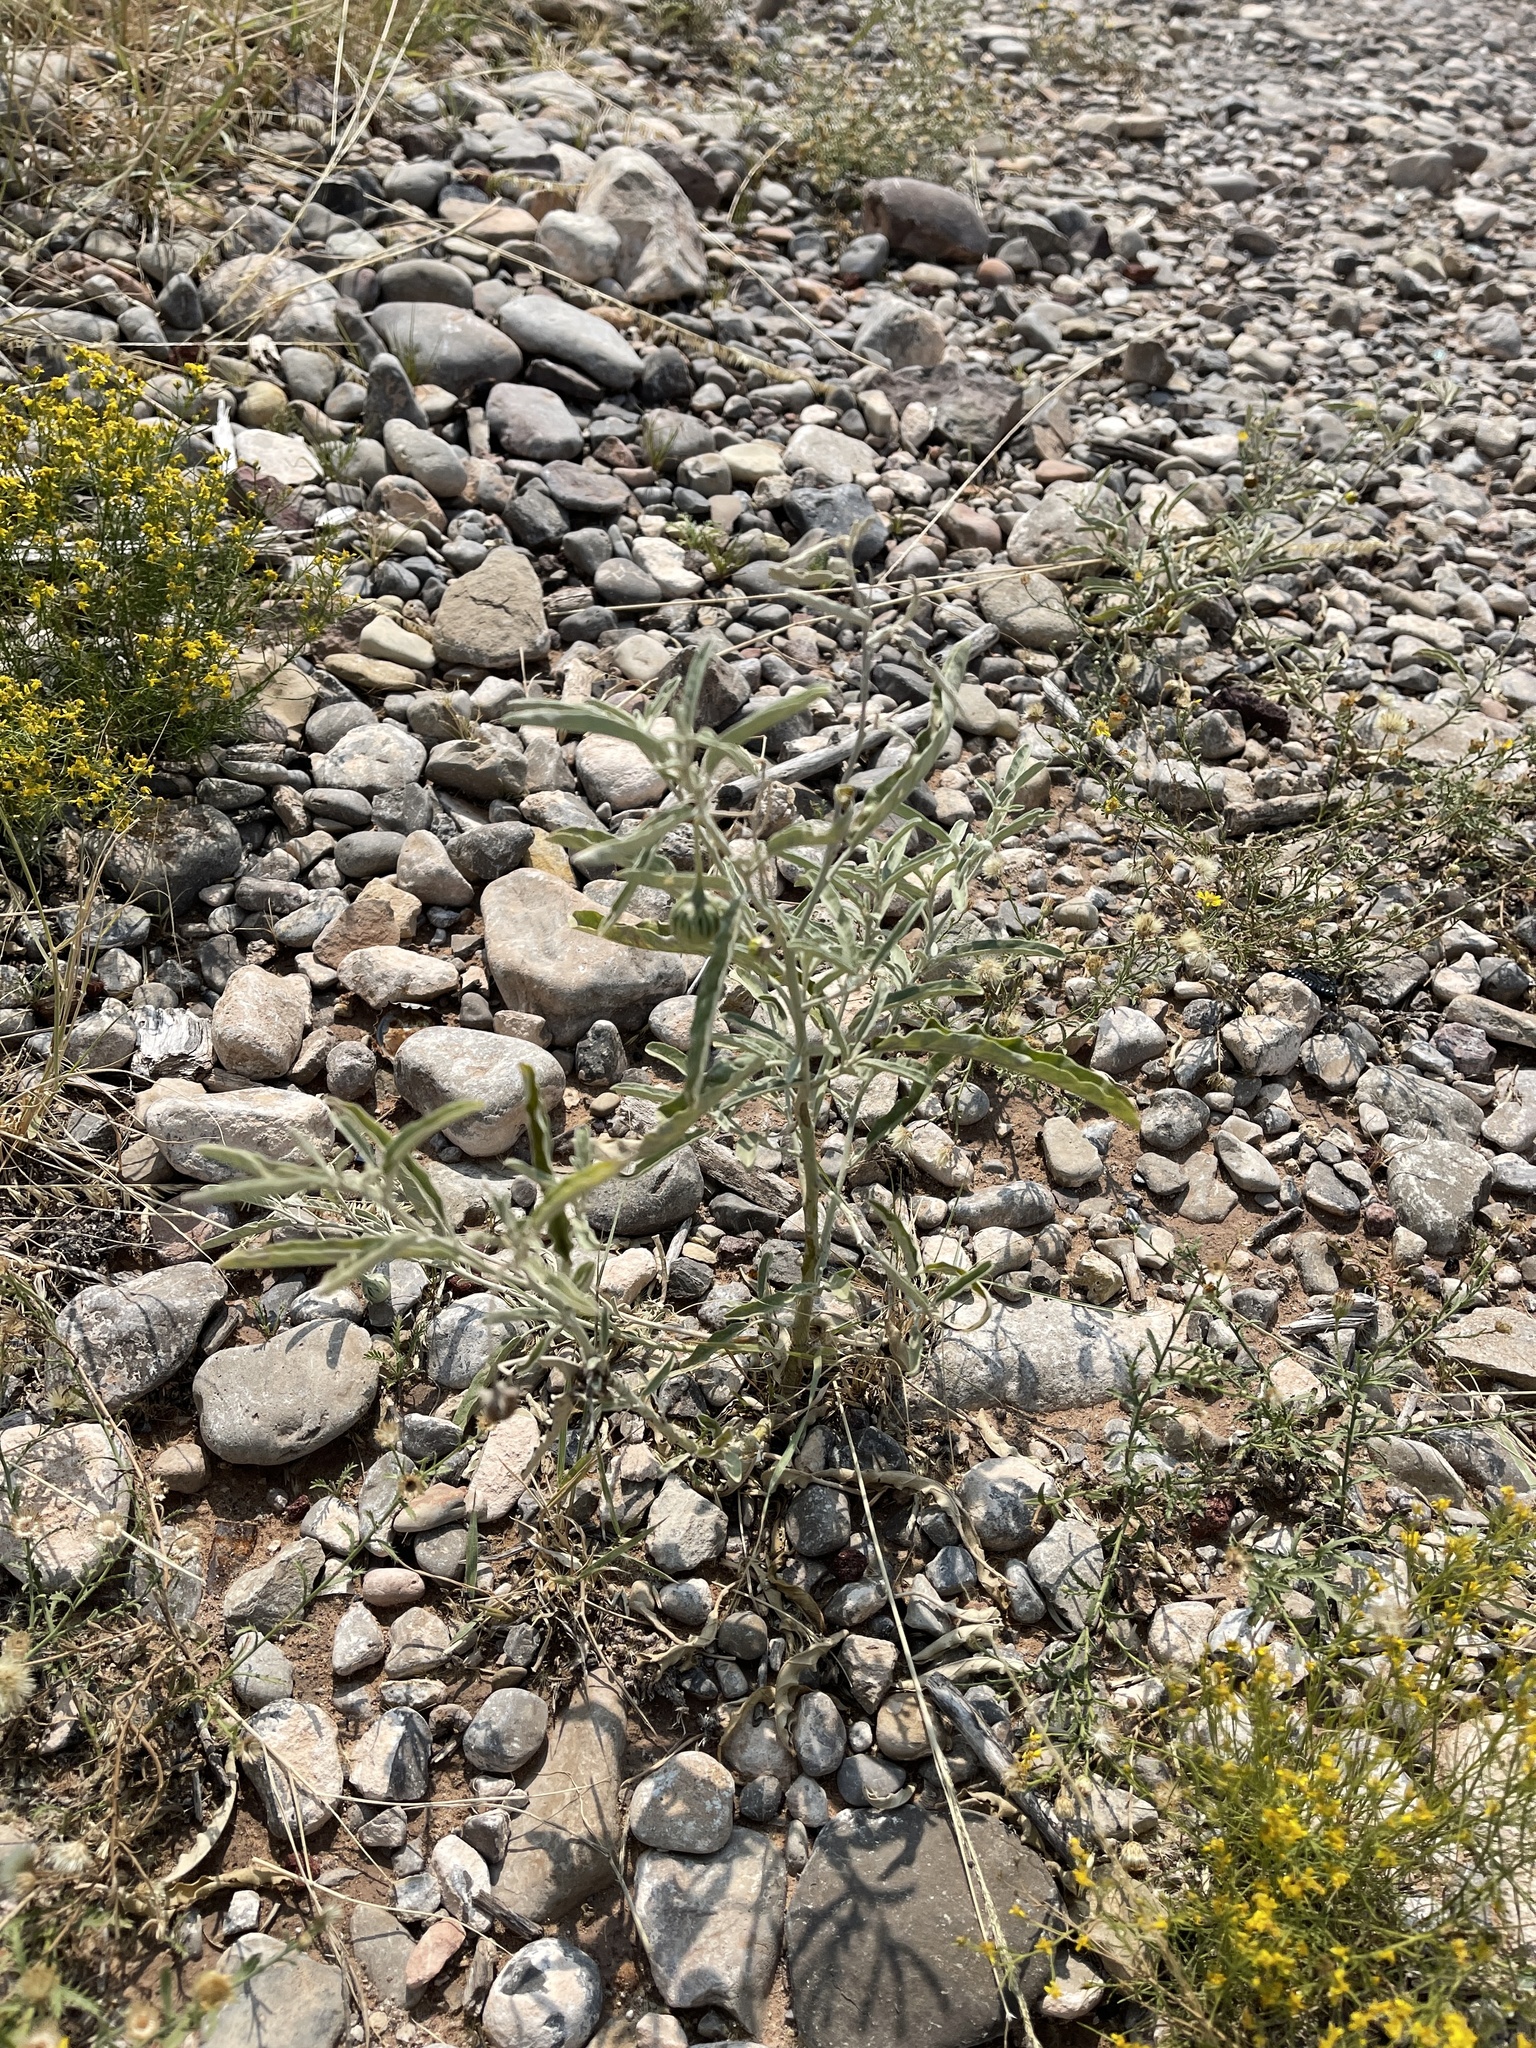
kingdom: Plantae
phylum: Tracheophyta
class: Magnoliopsida
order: Solanales
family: Solanaceae
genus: Solanum
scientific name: Solanum elaeagnifolium
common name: Silverleaf nightshade
